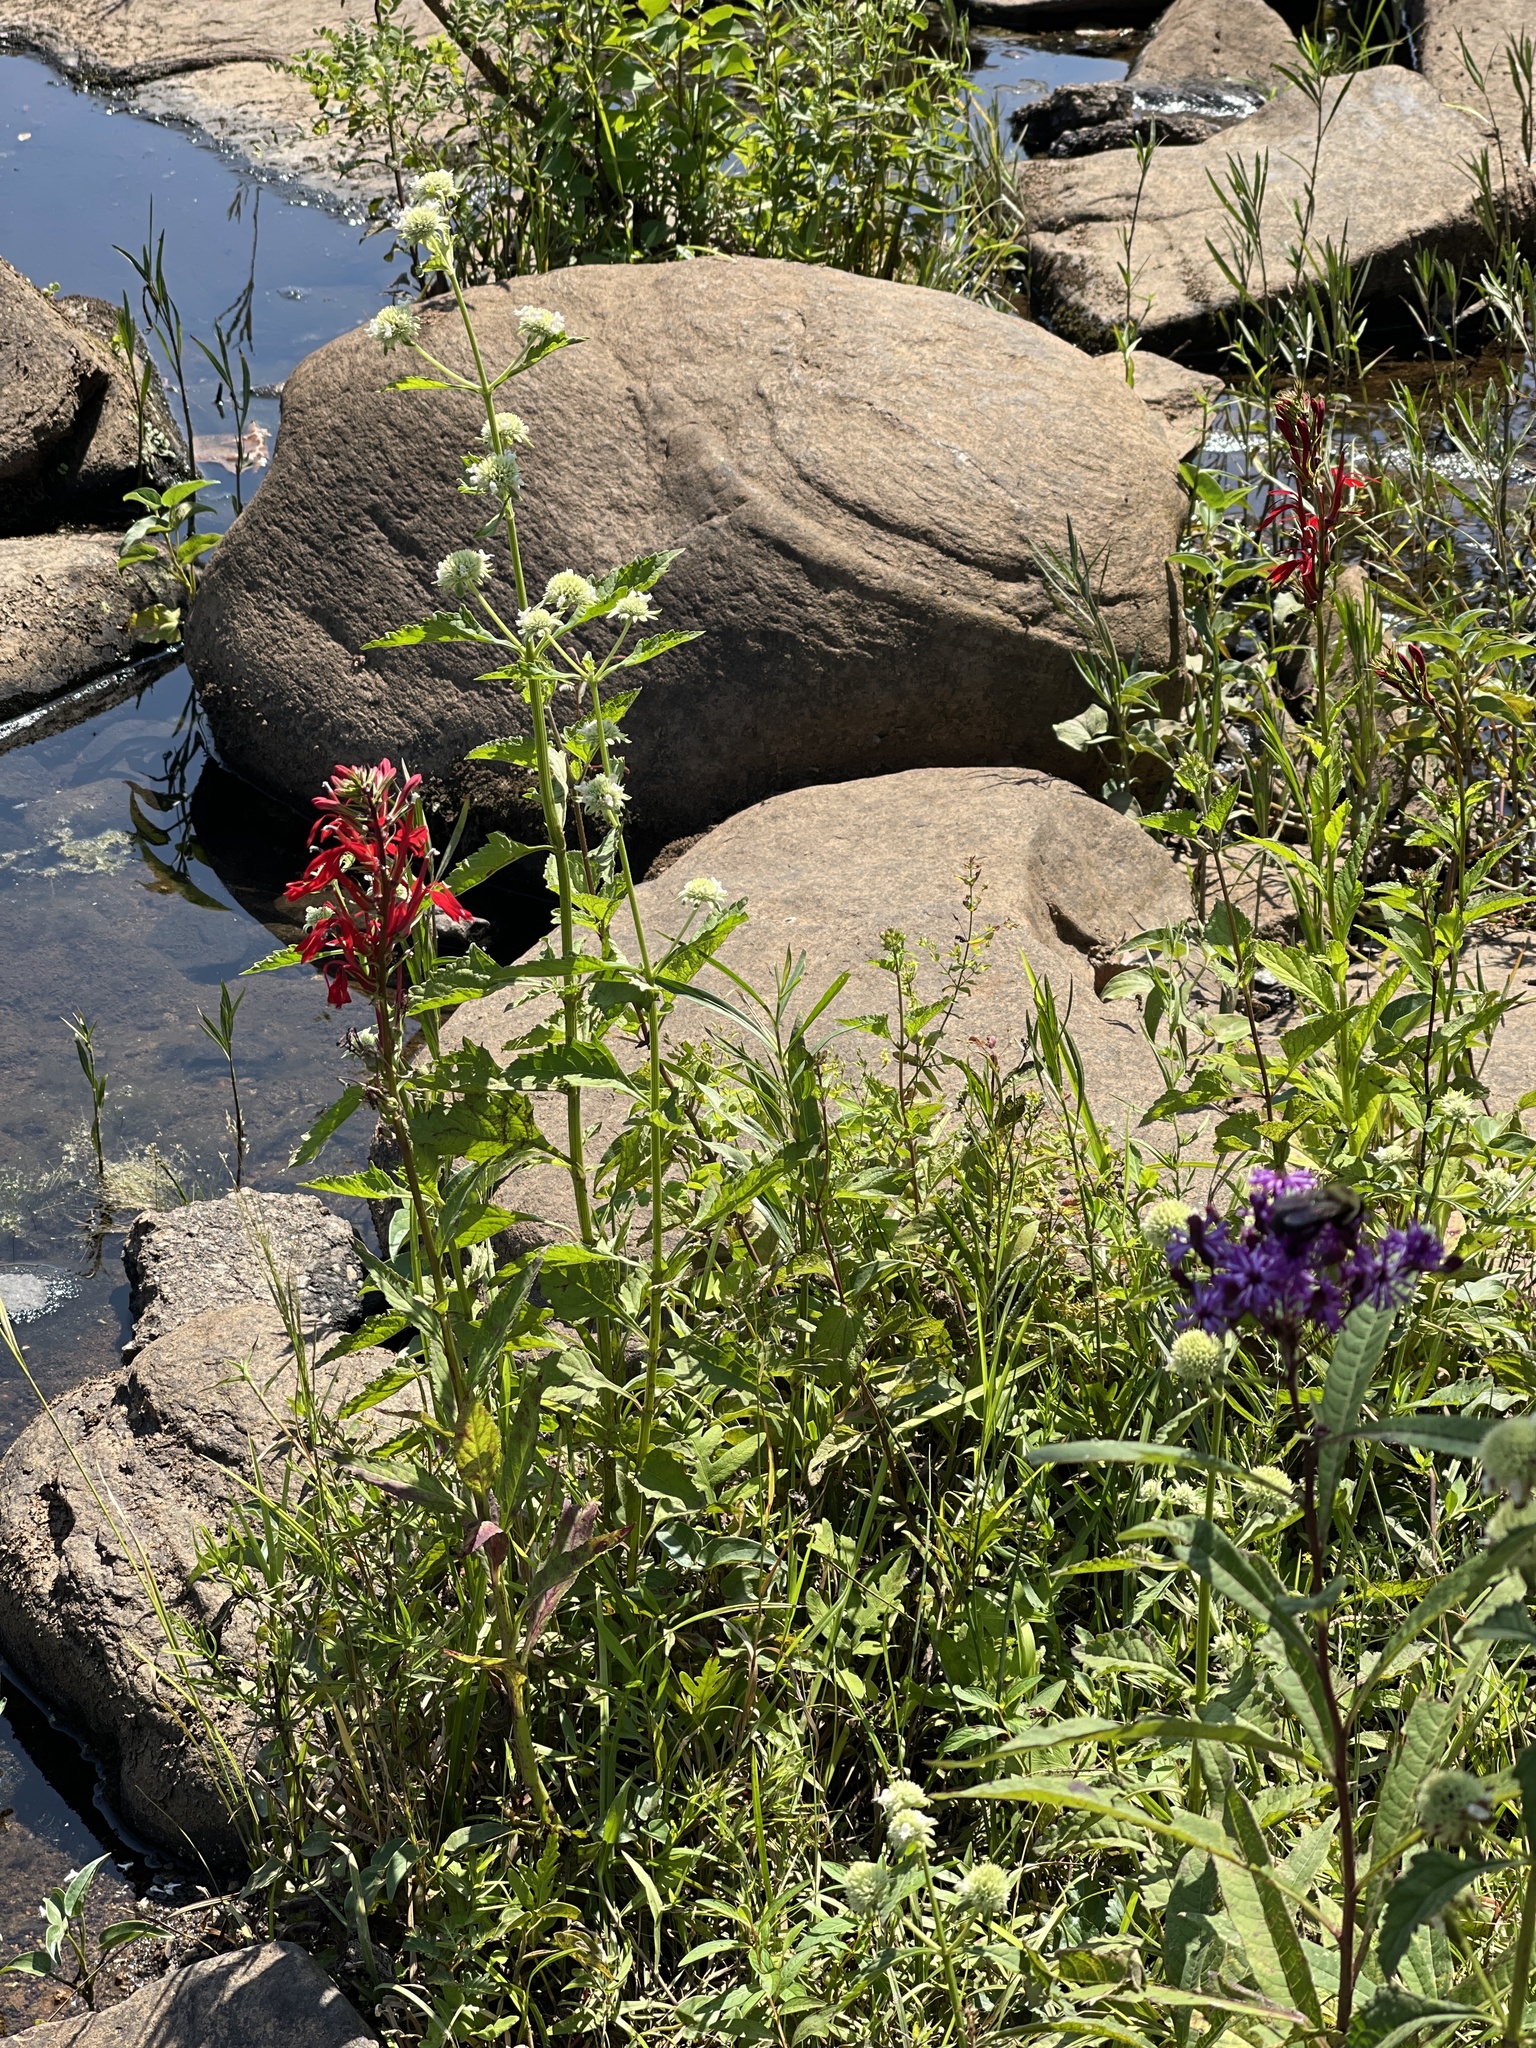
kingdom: Plantae
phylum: Tracheophyta
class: Magnoliopsida
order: Asterales
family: Campanulaceae
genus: Lobelia
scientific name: Lobelia cardinalis
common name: Cardinal flower
